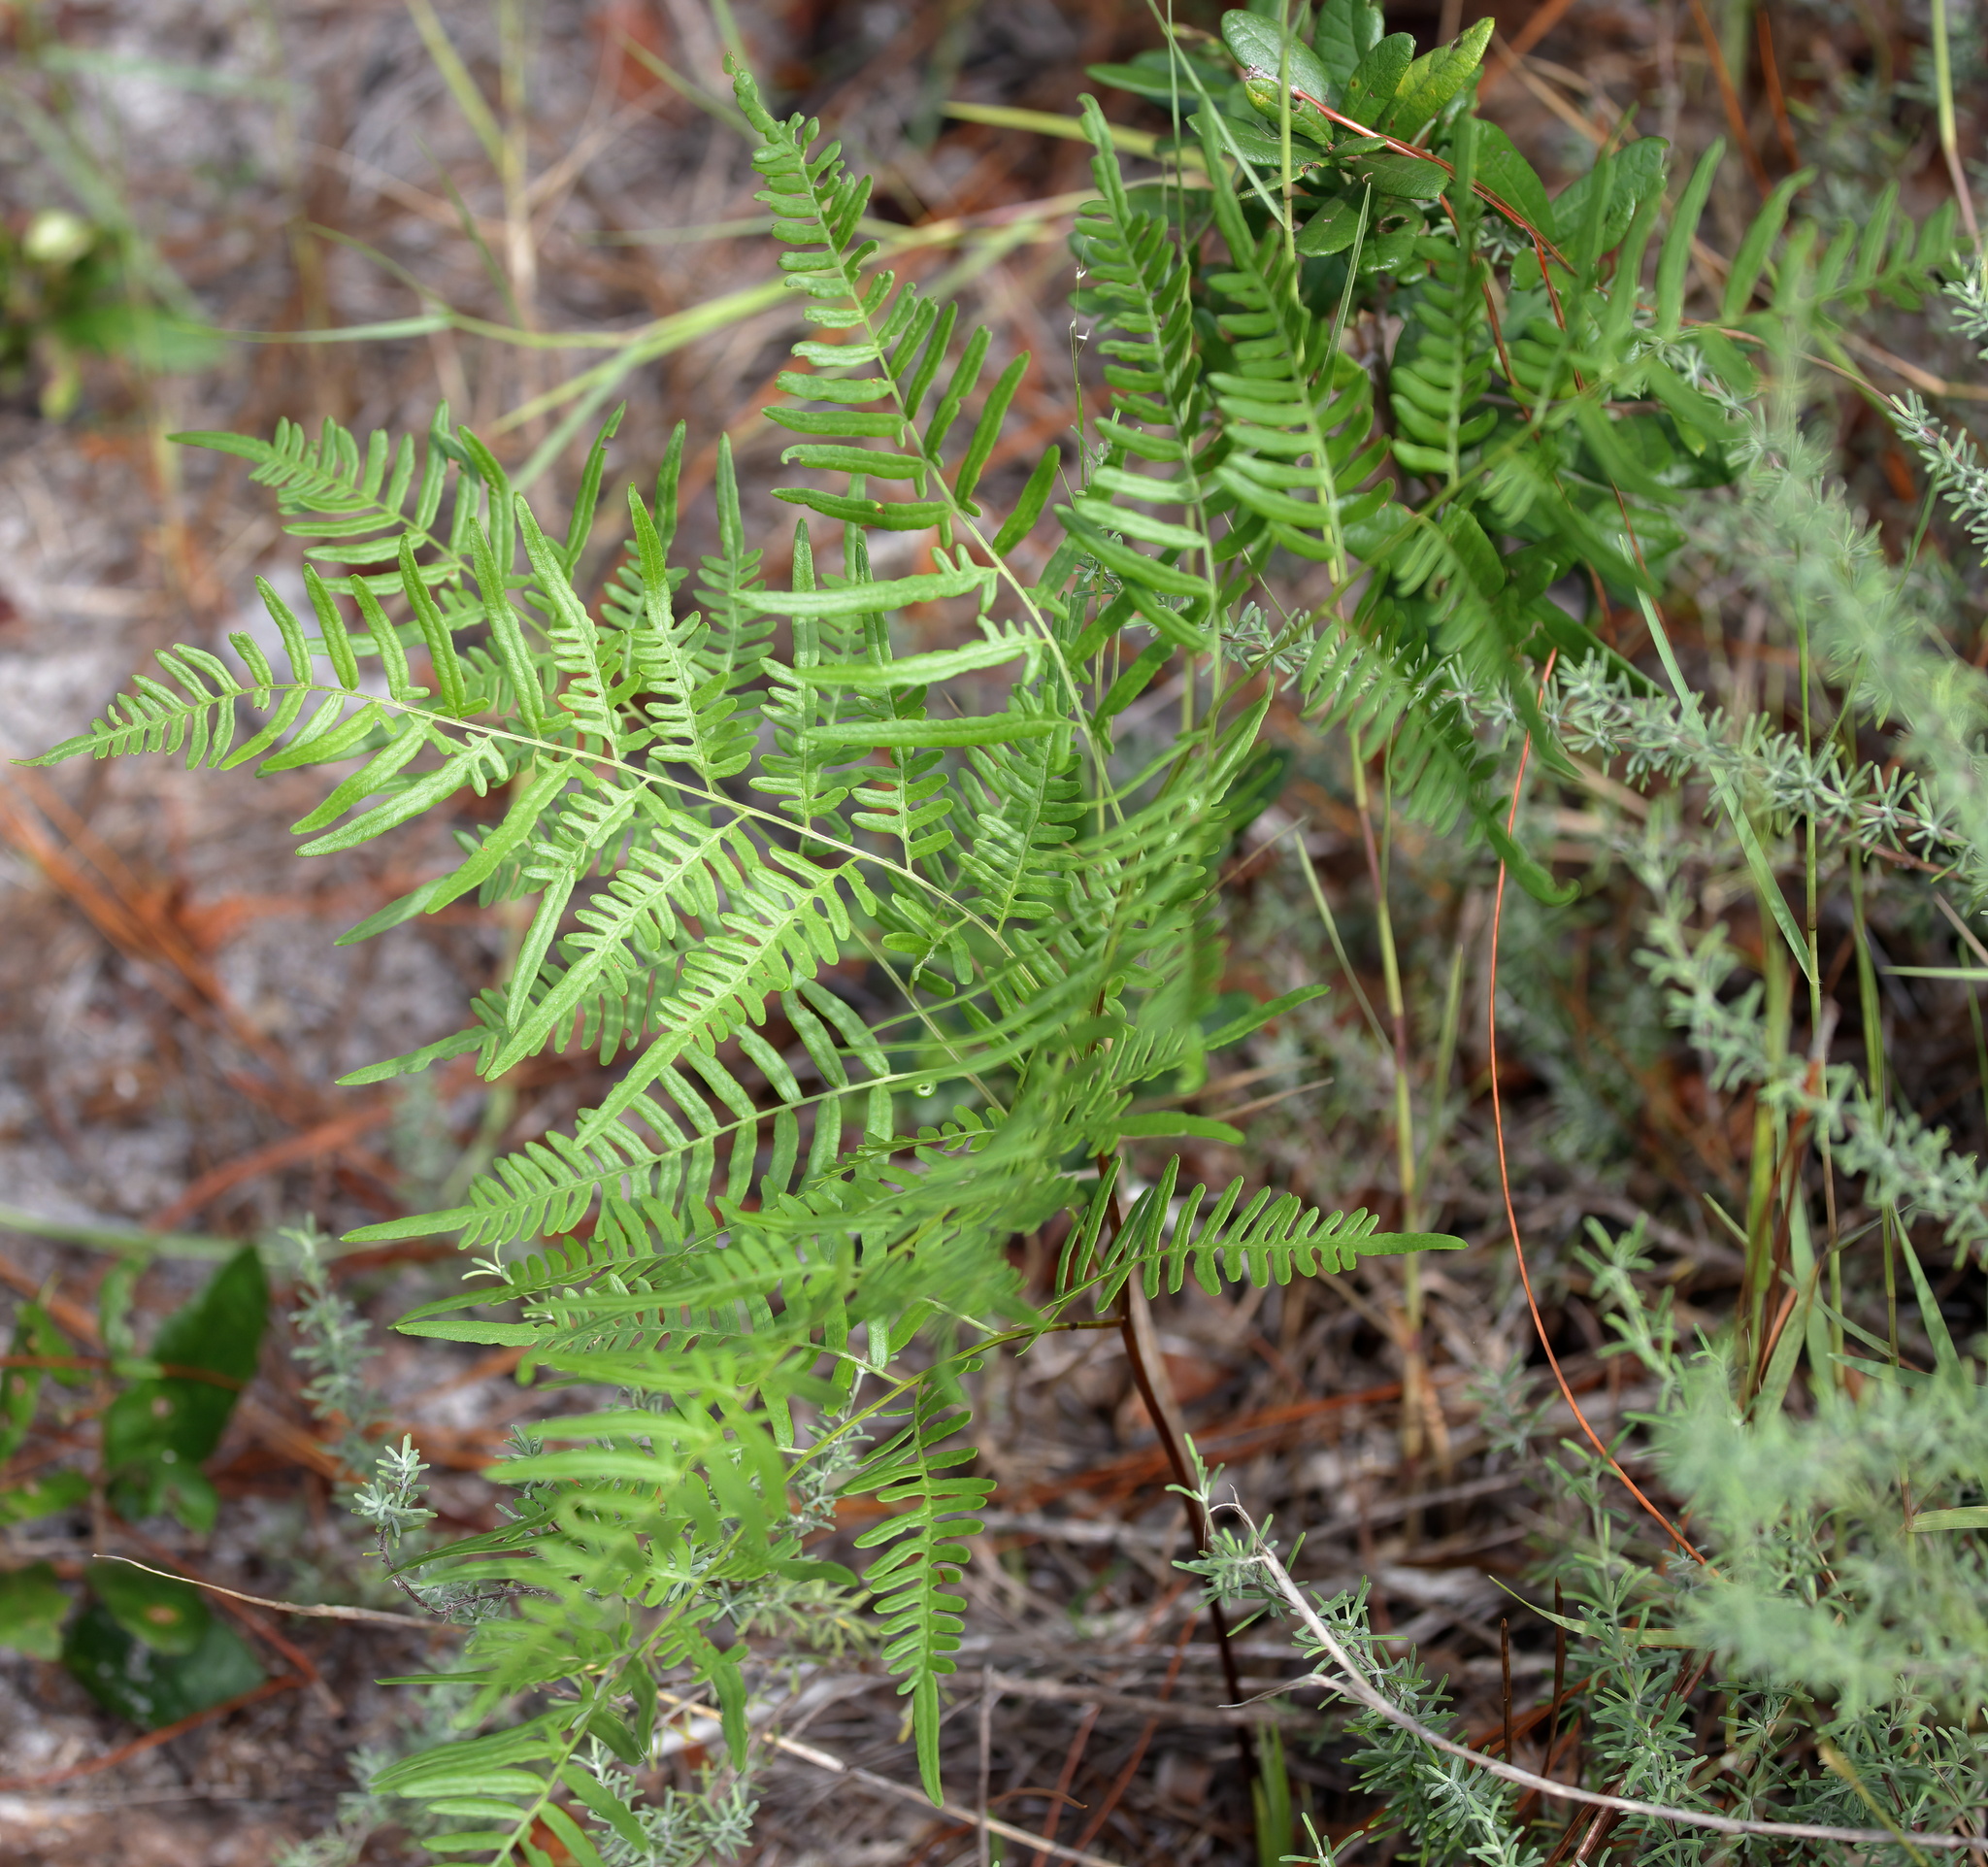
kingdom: Plantae
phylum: Tracheophyta
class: Polypodiopsida
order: Polypodiales
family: Dennstaedtiaceae
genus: Pteridium
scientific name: Pteridium
